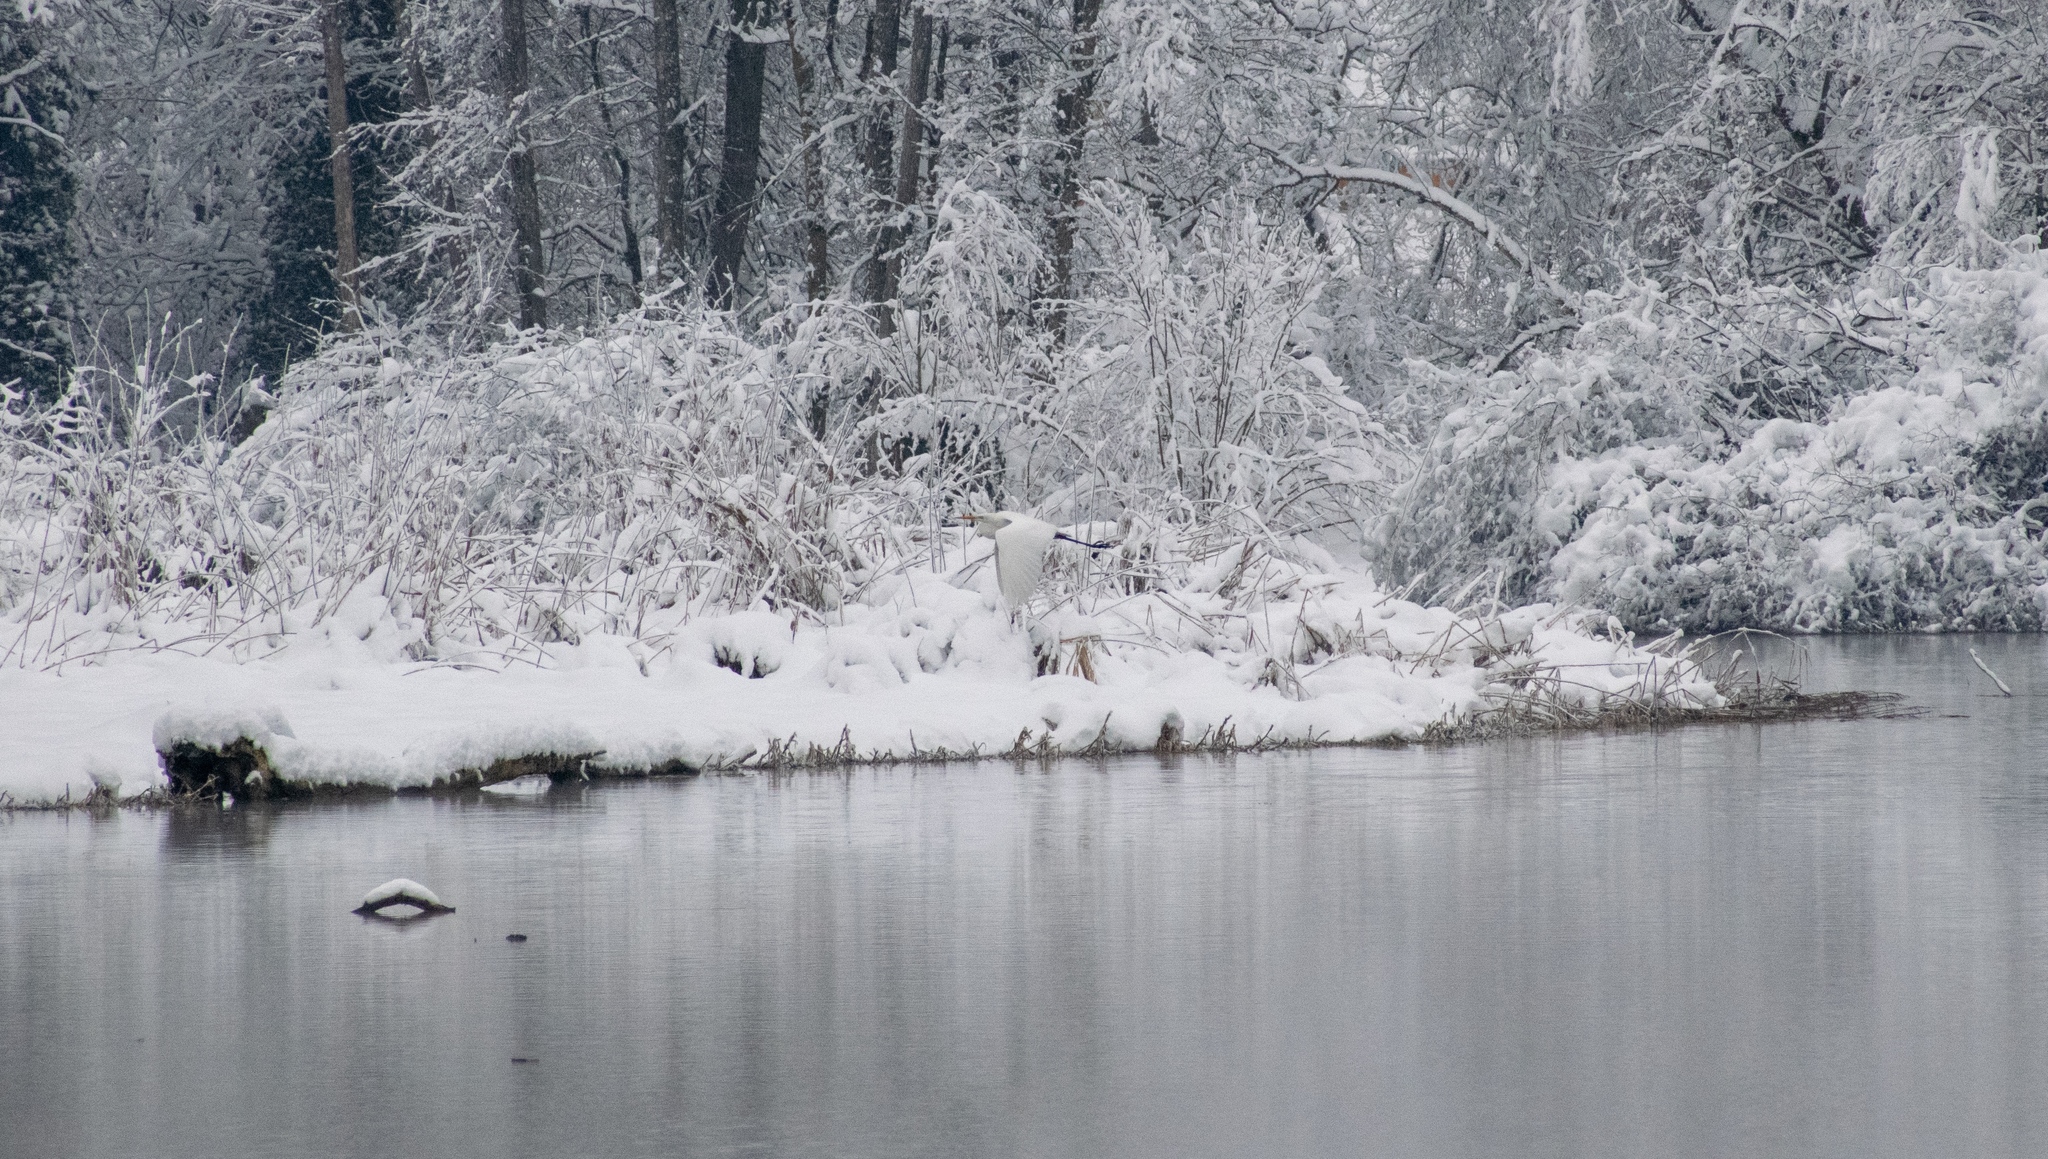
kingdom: Animalia
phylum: Chordata
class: Aves
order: Pelecaniformes
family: Ardeidae
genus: Ardea
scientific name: Ardea alba
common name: Great egret
